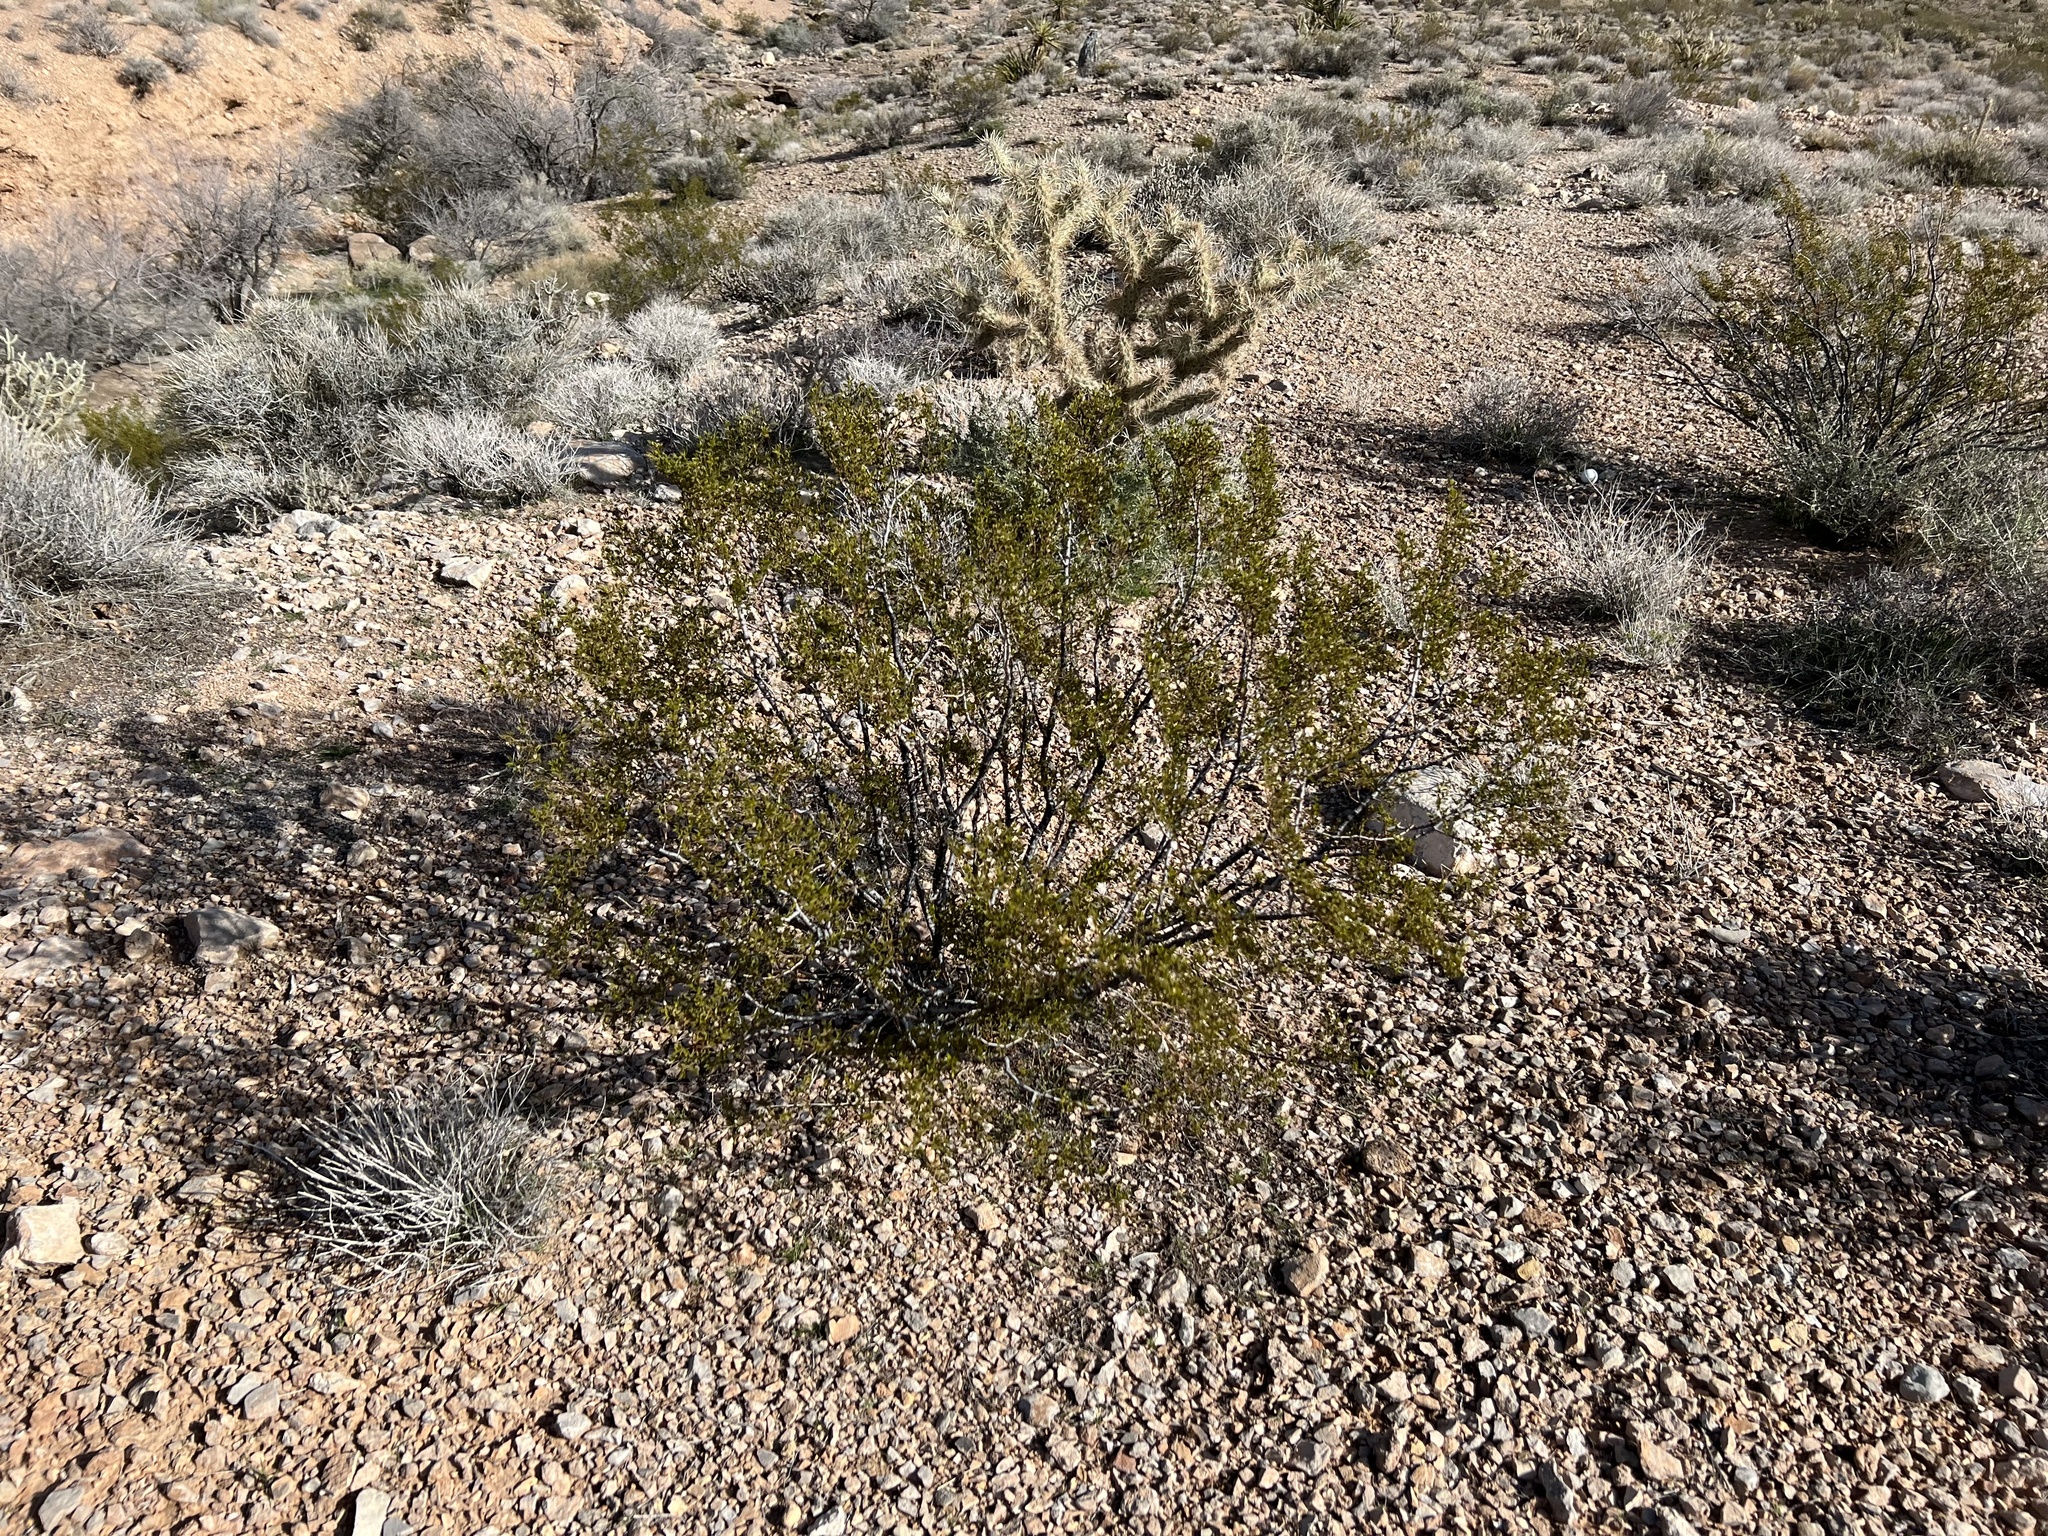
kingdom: Plantae
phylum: Tracheophyta
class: Magnoliopsida
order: Zygophyllales
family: Zygophyllaceae
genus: Larrea
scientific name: Larrea tridentata
